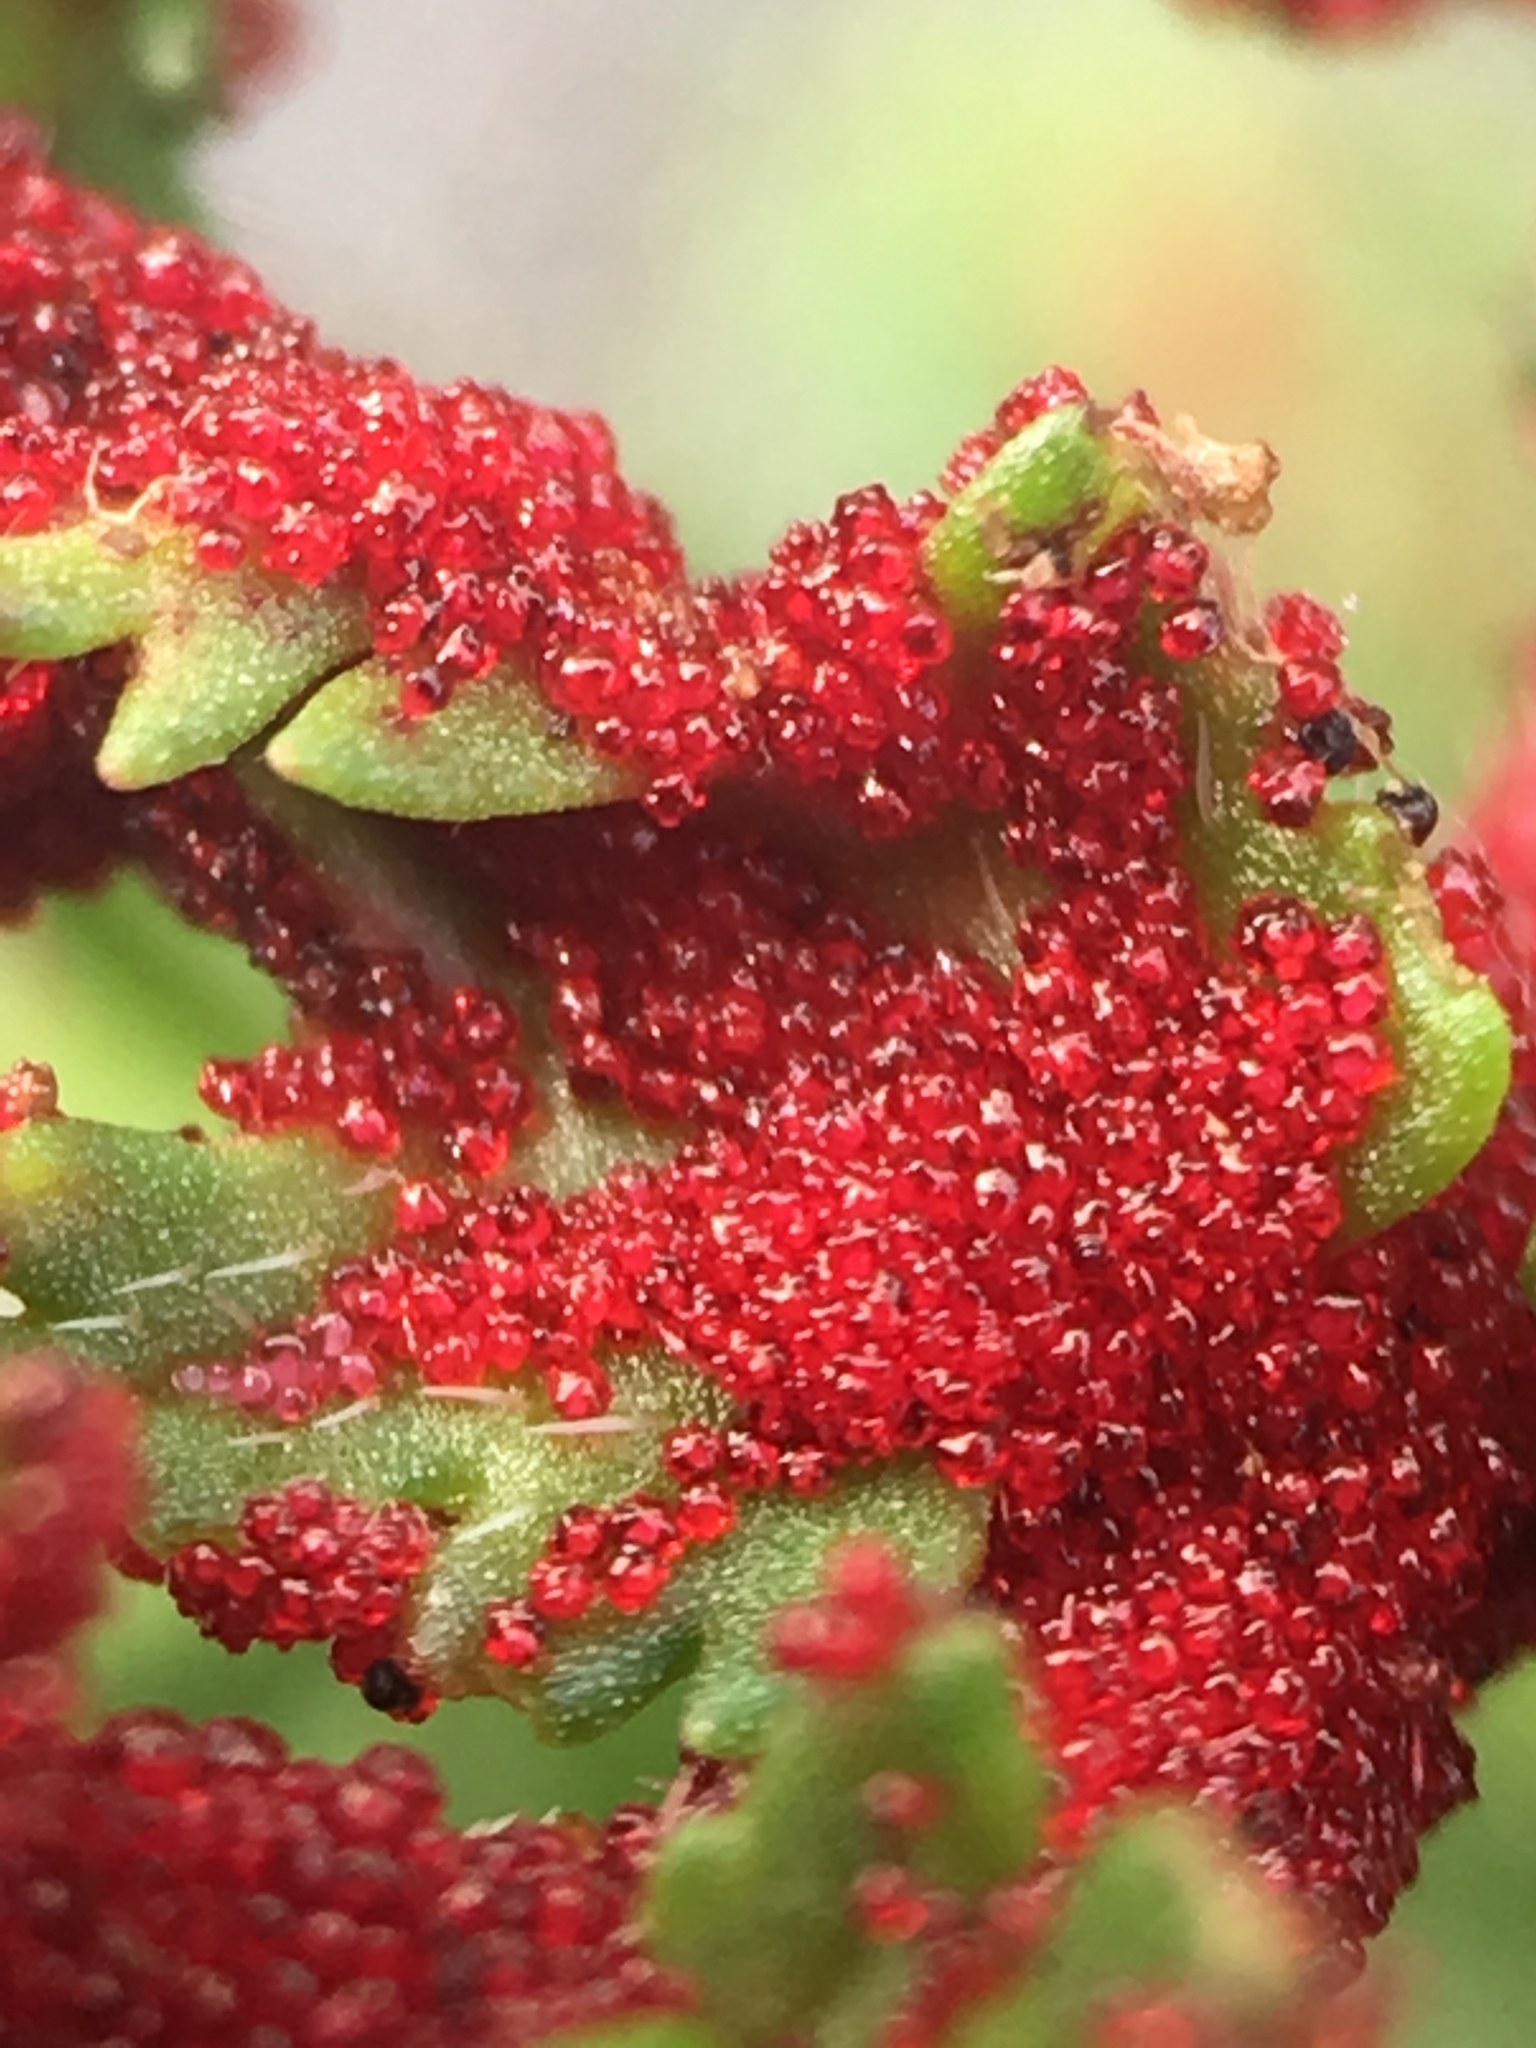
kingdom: Fungi
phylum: Chytridiomycota
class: Chytridiomycetes
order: Chytridiales
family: Synchytriaceae
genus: Synchytrium
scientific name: Synchytrium papillatum
